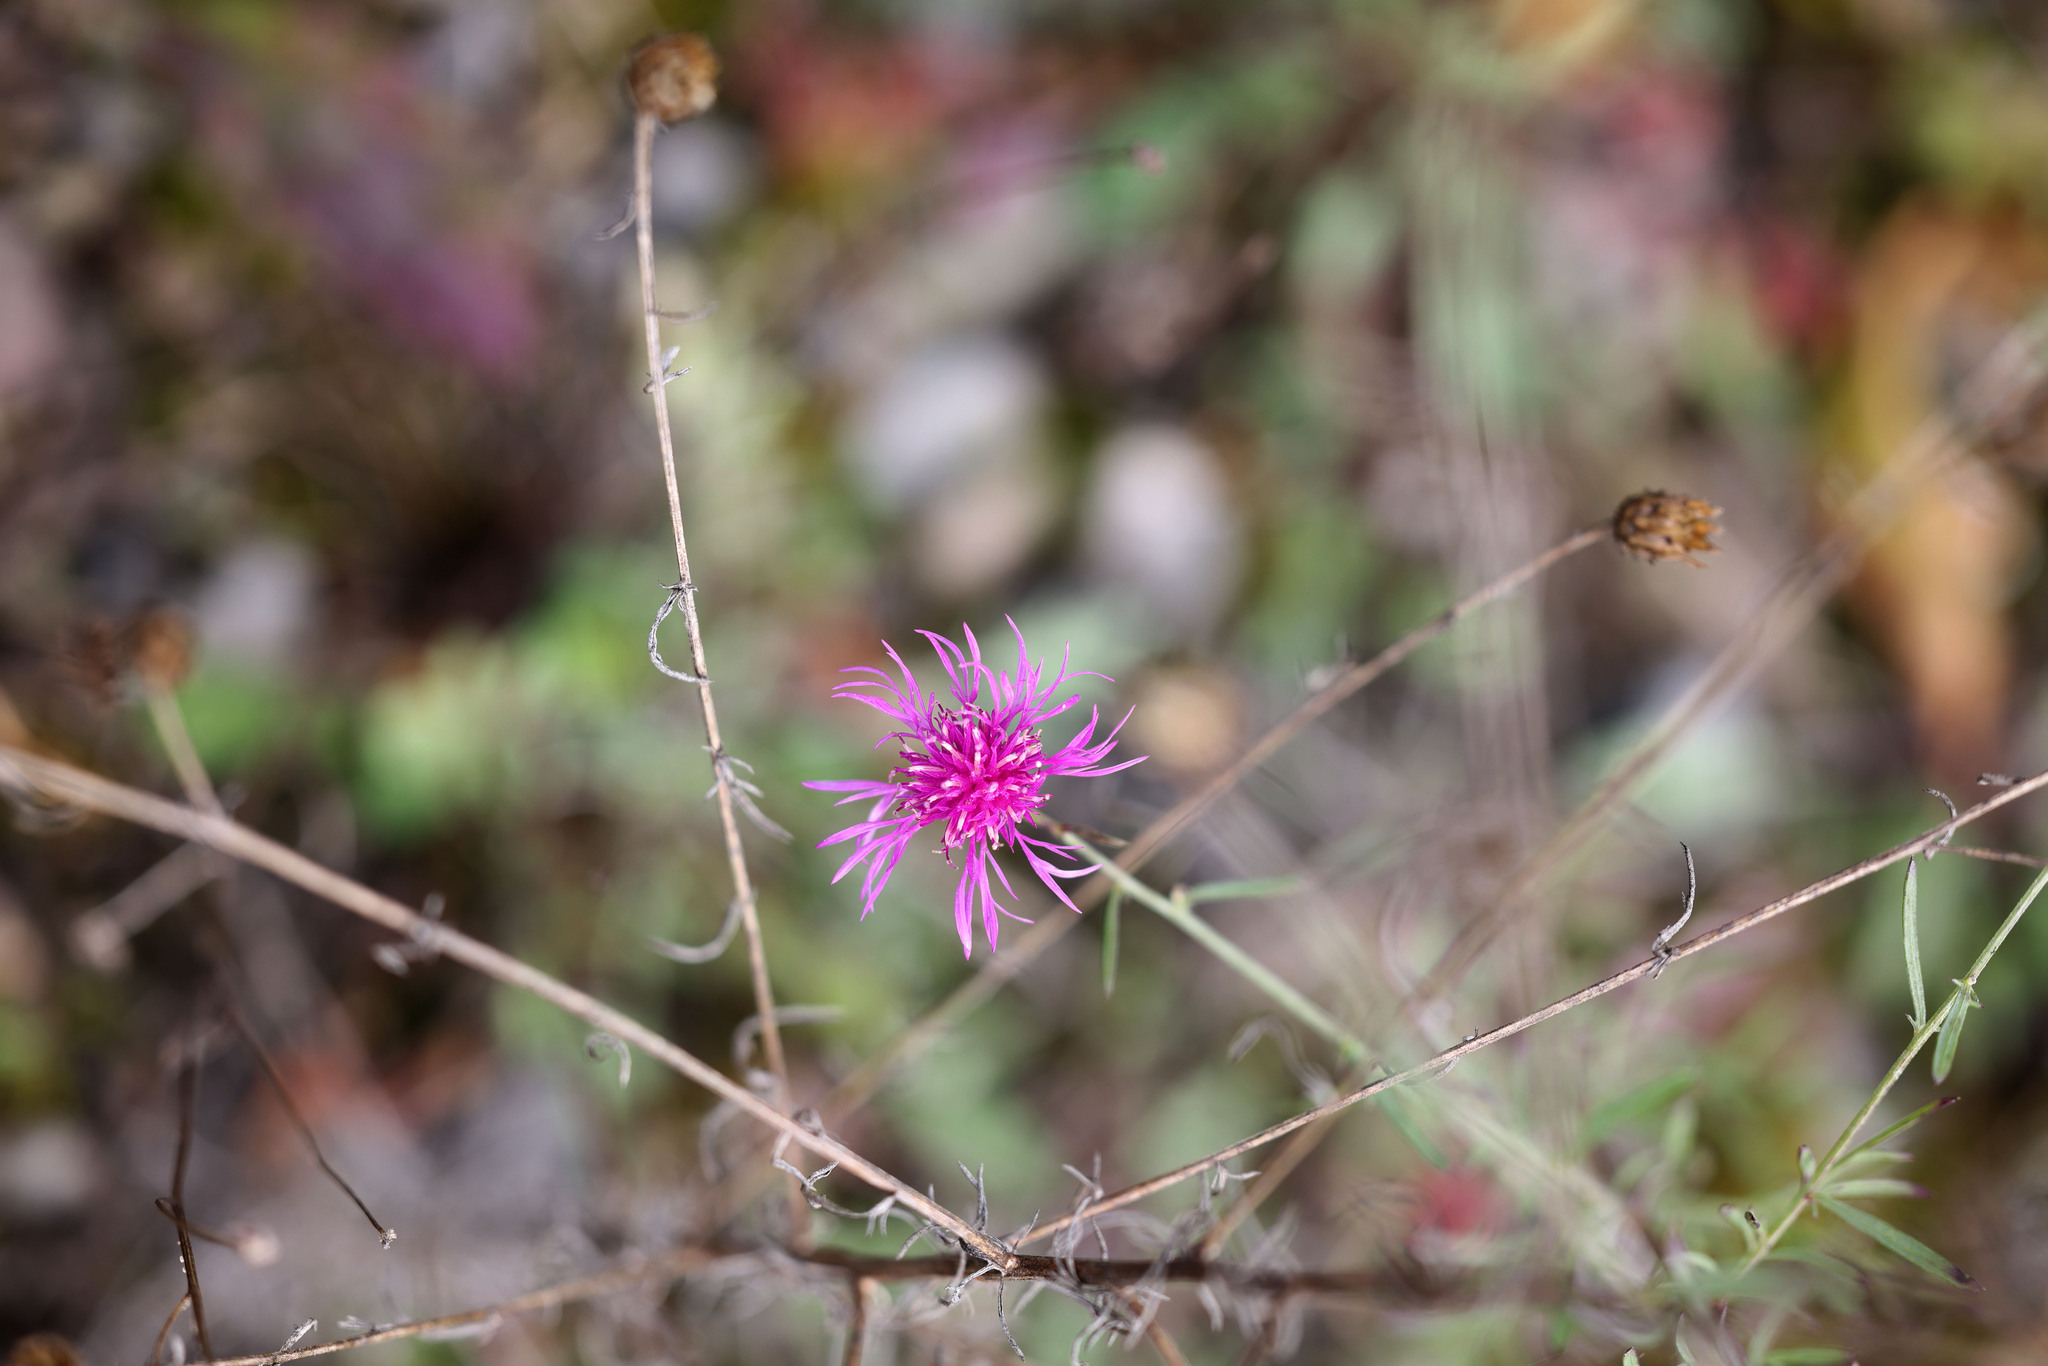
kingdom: Plantae
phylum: Tracheophyta
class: Magnoliopsida
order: Asterales
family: Asteraceae
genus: Centaurea
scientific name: Centaurea stoebe
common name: Spotted knapweed
